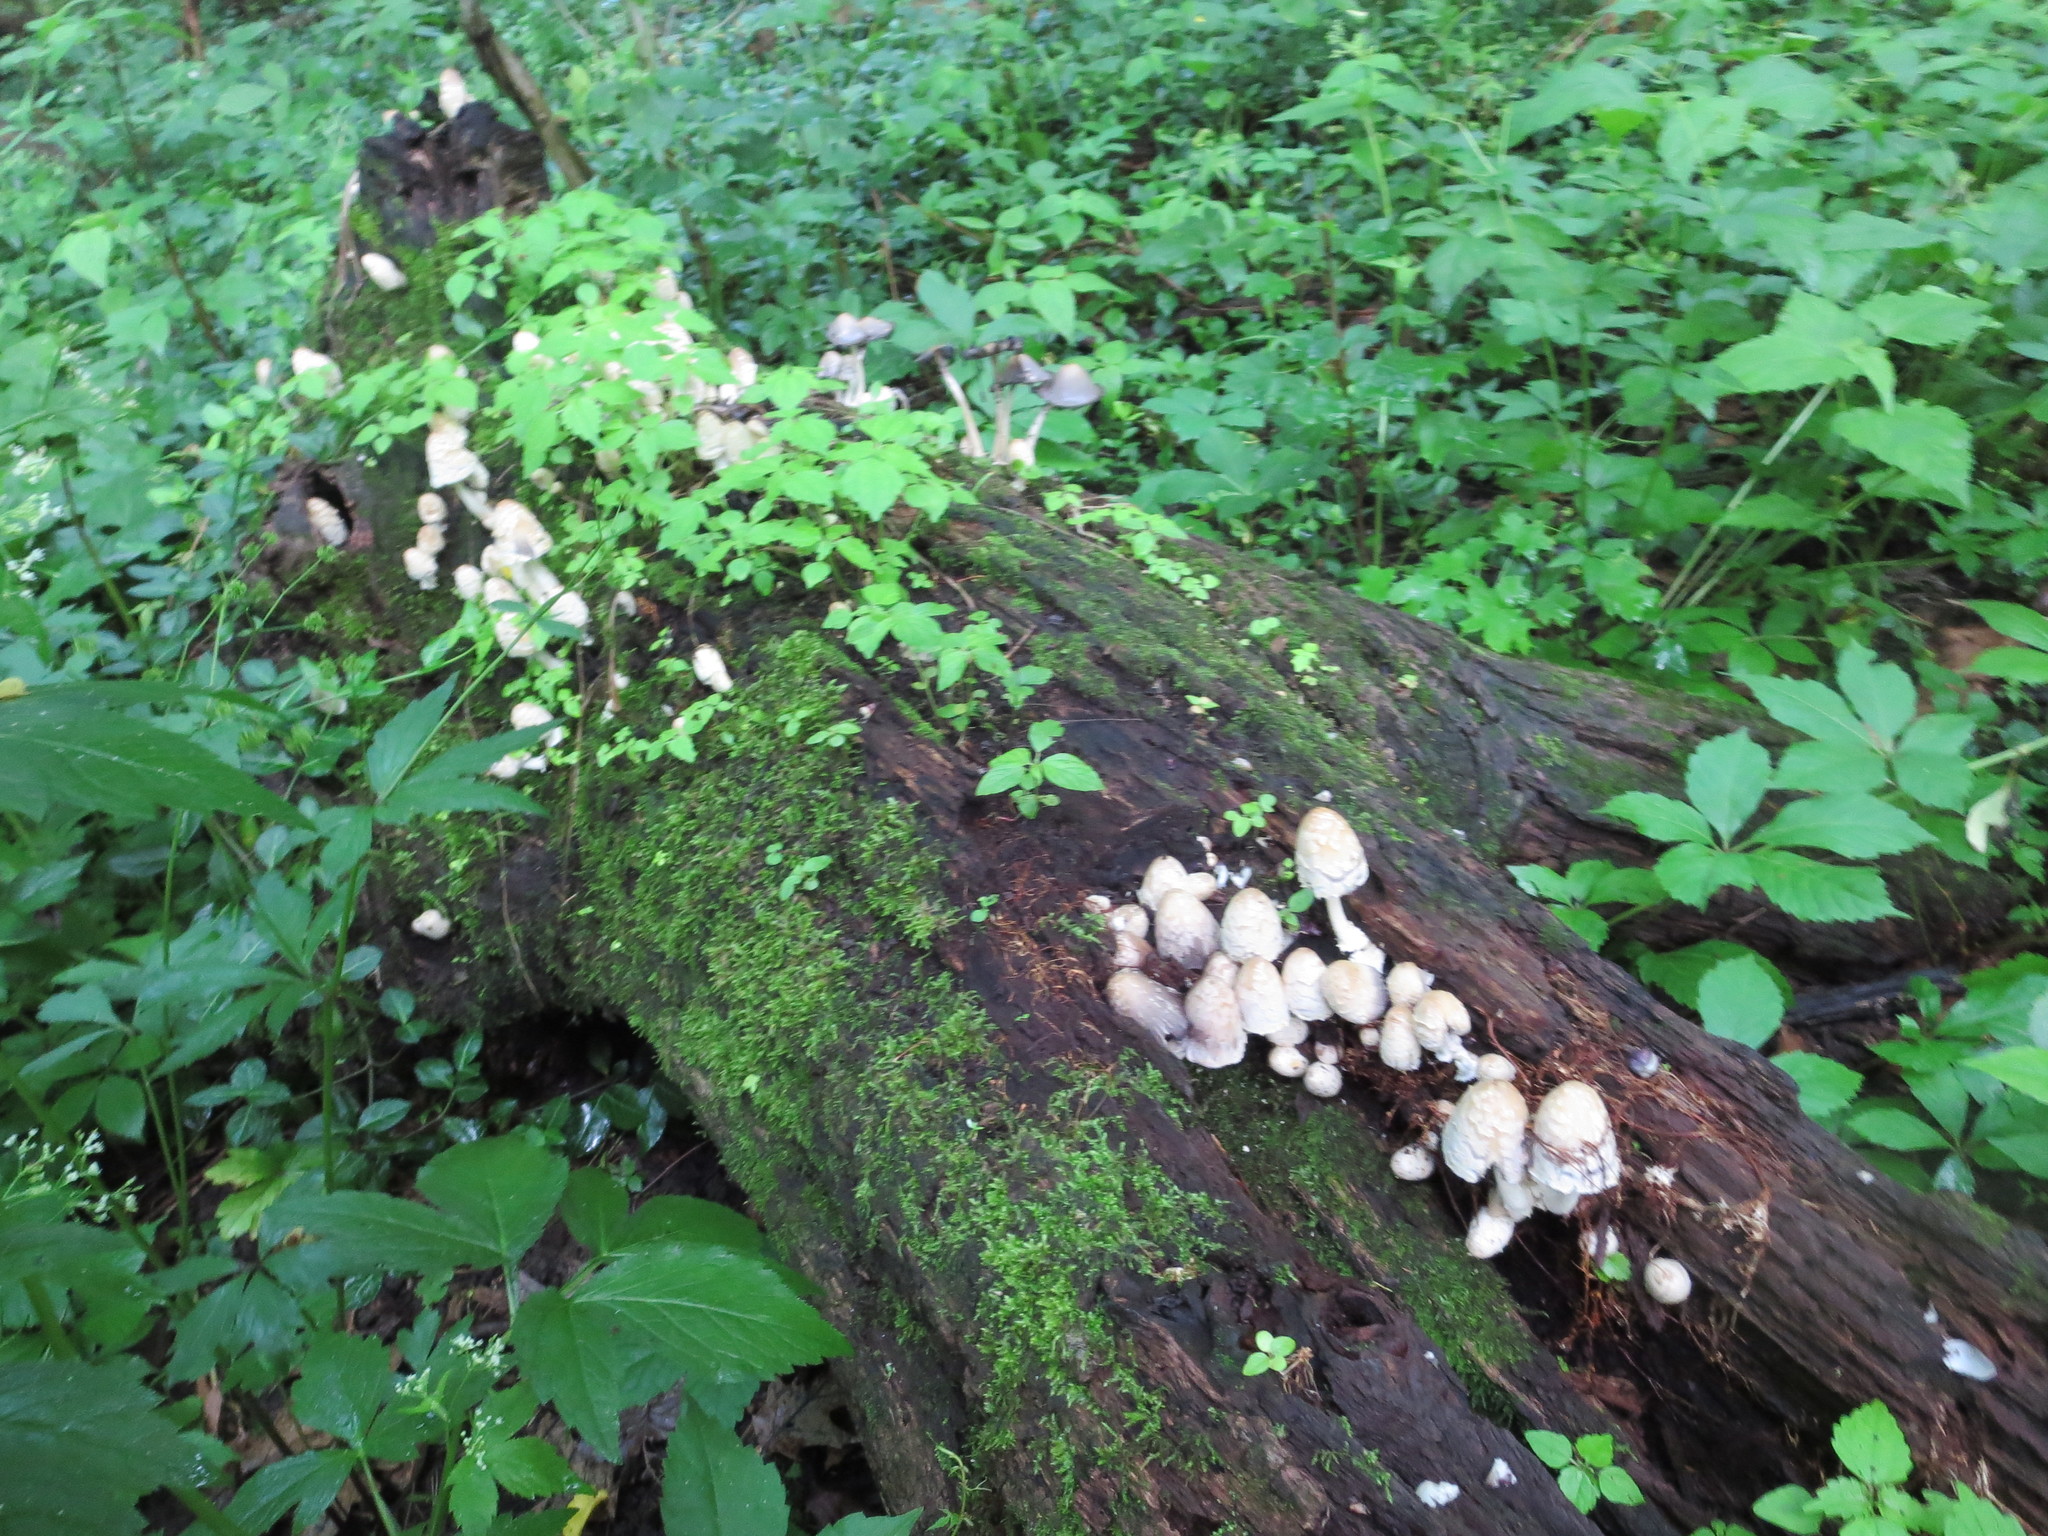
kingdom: Fungi
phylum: Basidiomycota
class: Agaricomycetes
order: Agaricales
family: Psathyrellaceae
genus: Coprinopsis
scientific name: Coprinopsis variegata
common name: Scaly ink cap
